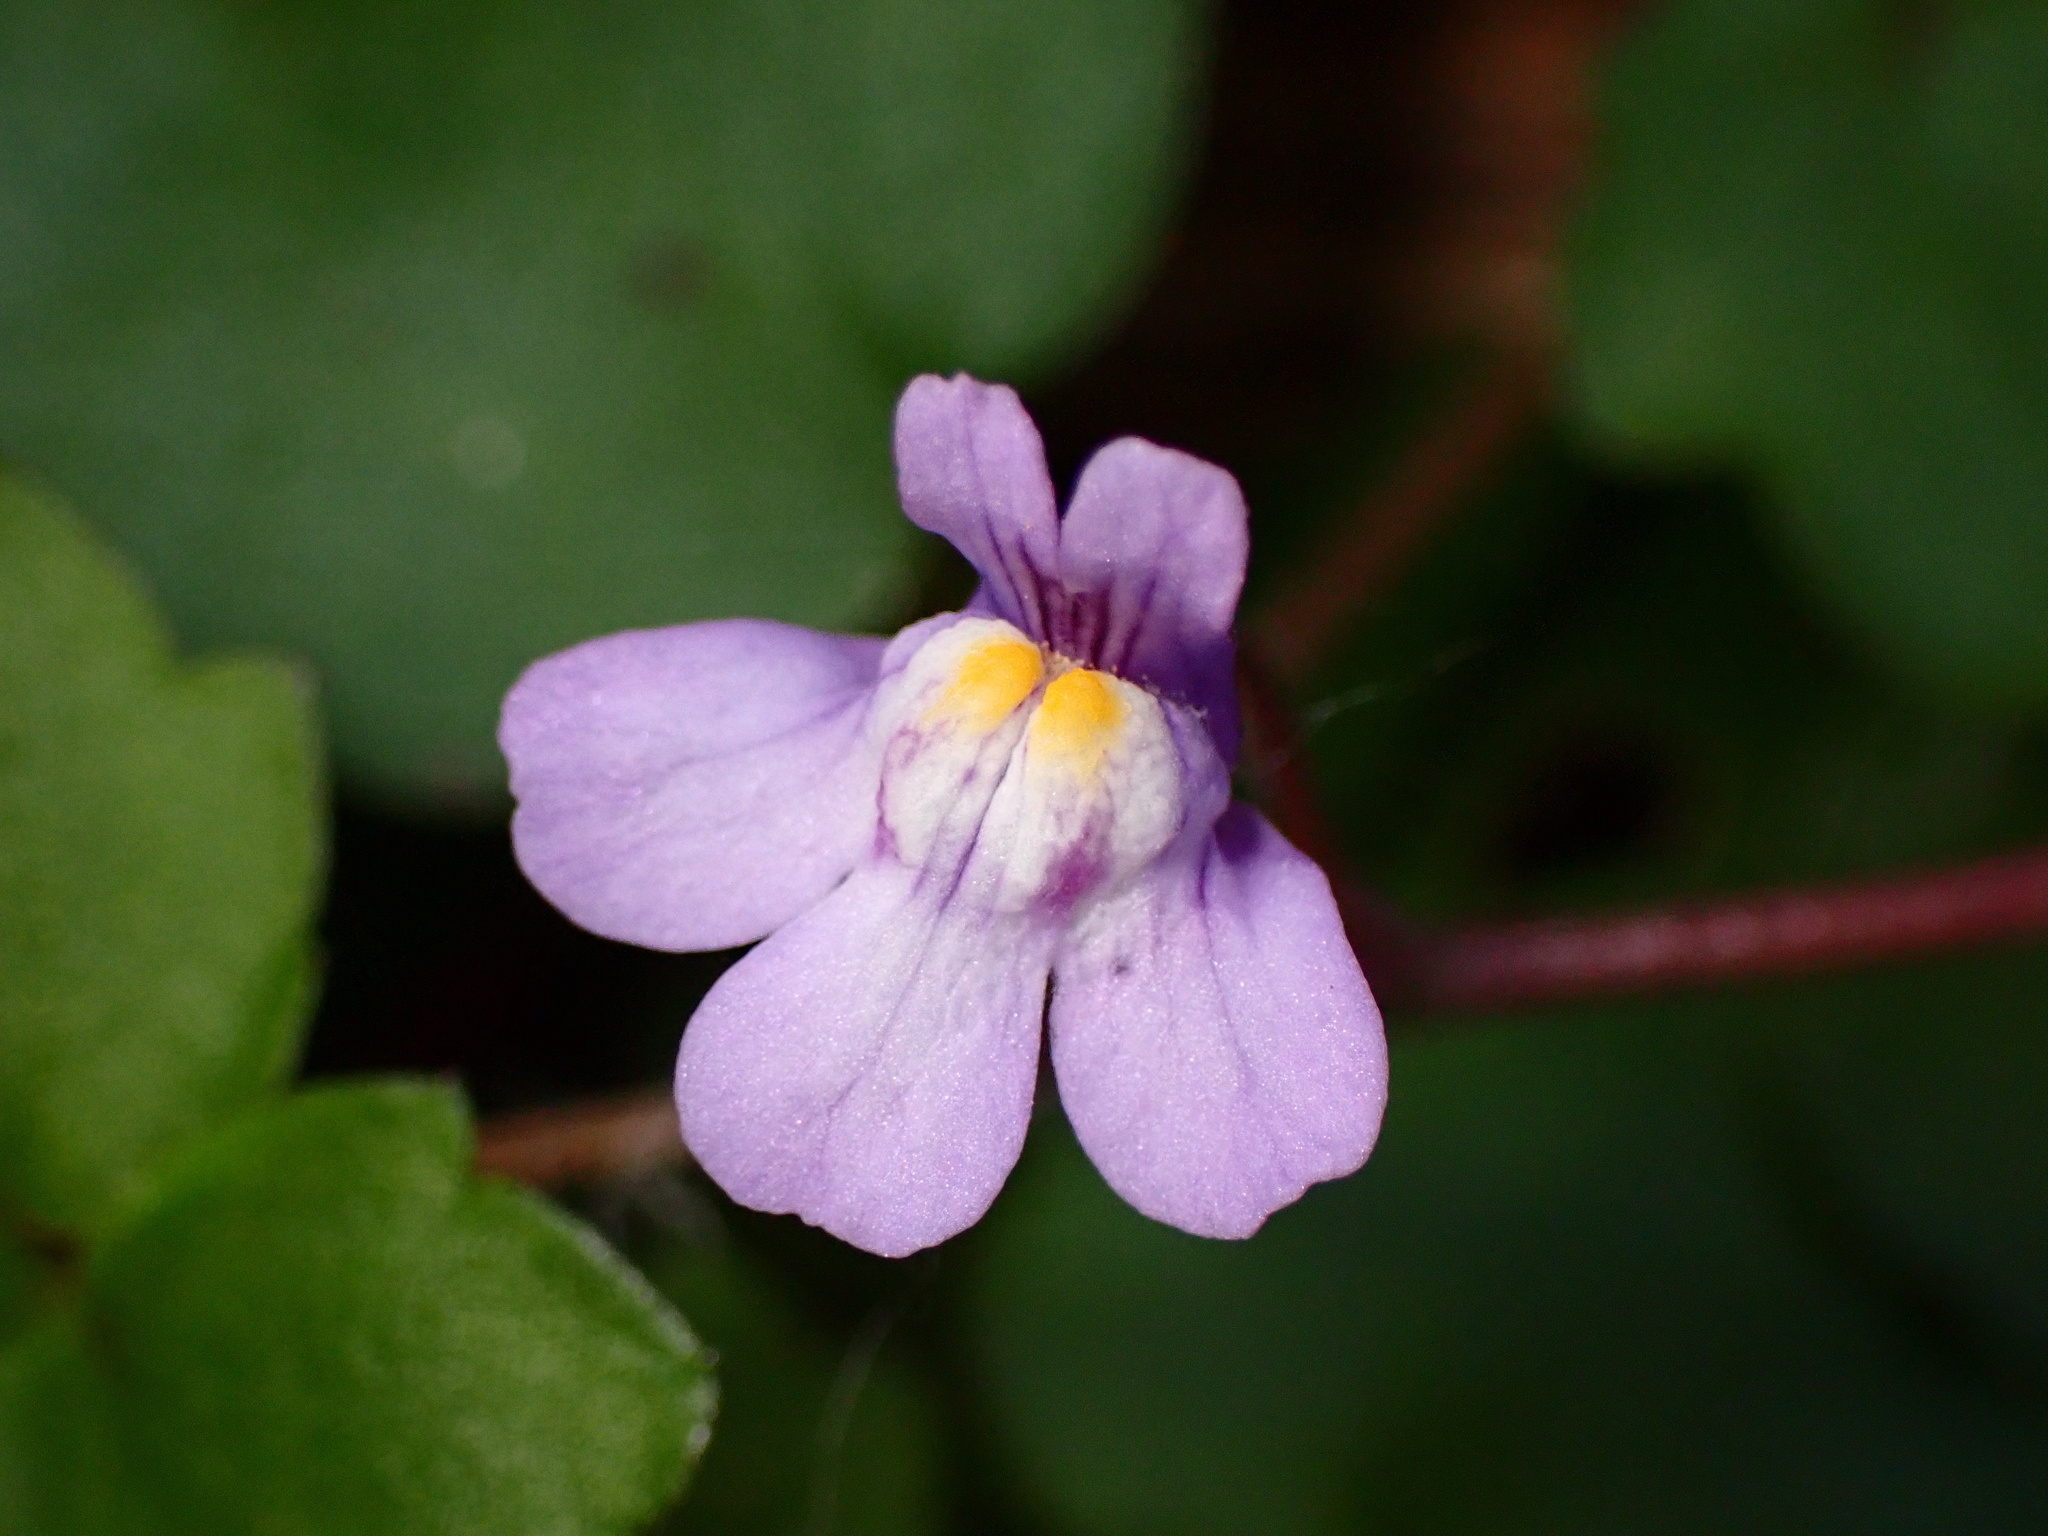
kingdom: Plantae
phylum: Tracheophyta
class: Magnoliopsida
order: Lamiales
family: Plantaginaceae
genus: Cymbalaria
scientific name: Cymbalaria muralis
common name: Ivy-leaved toadflax
